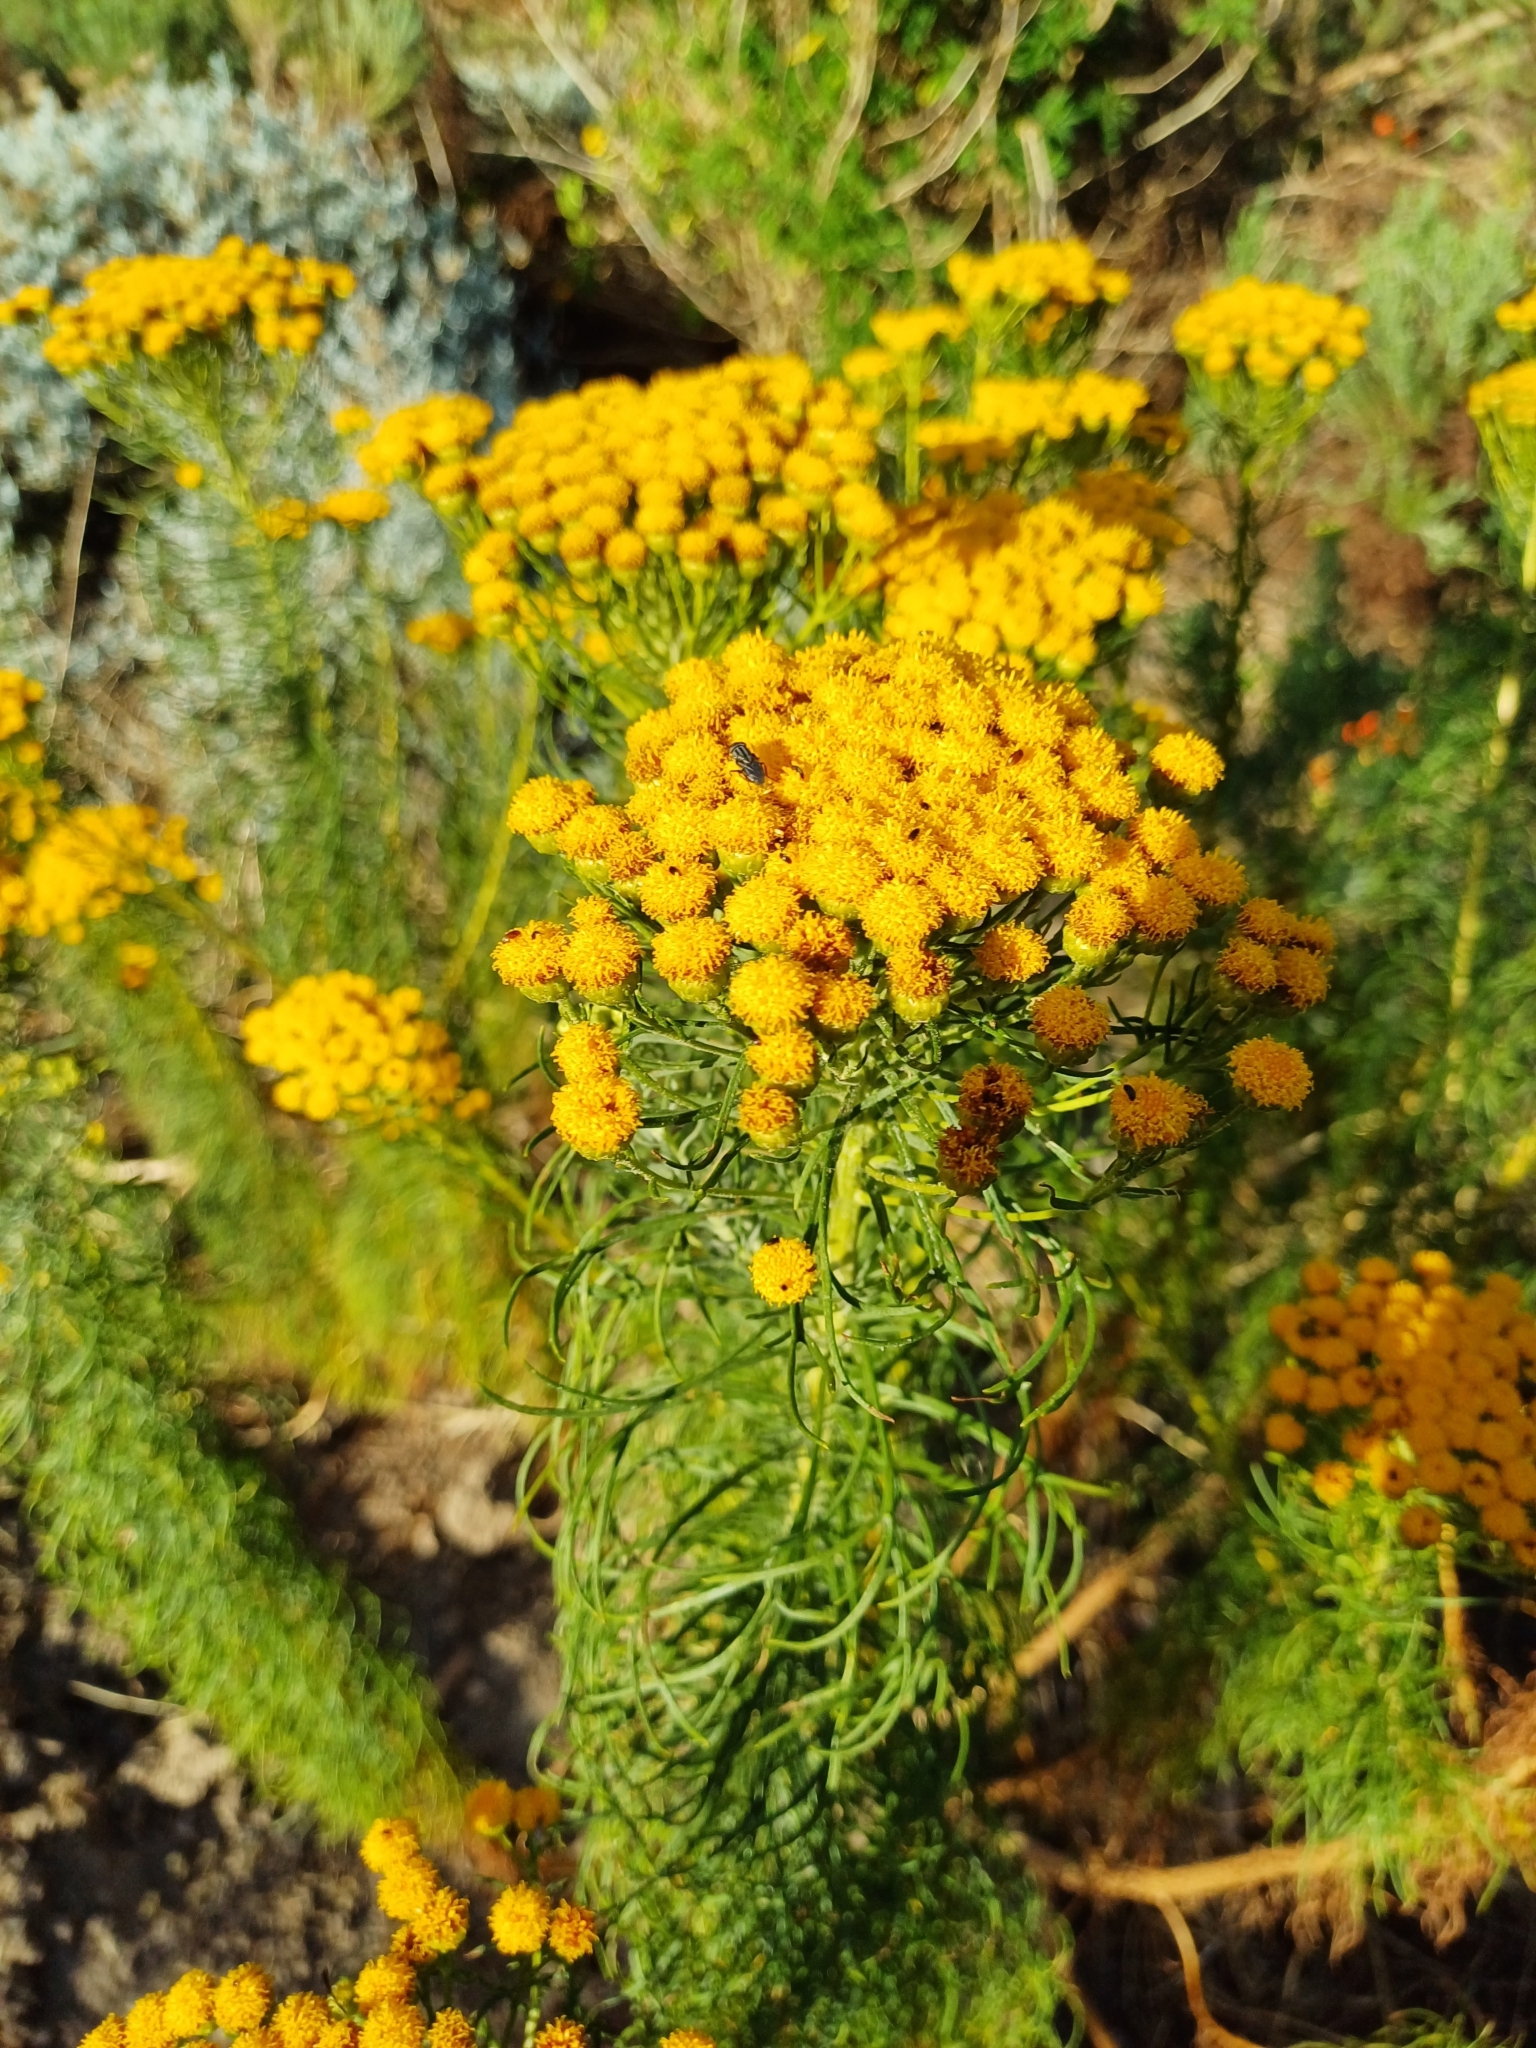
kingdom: Plantae
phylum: Tracheophyta
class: Magnoliopsida
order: Asterales
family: Asteraceae
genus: Athanasia
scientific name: Athanasia crithmifolia
